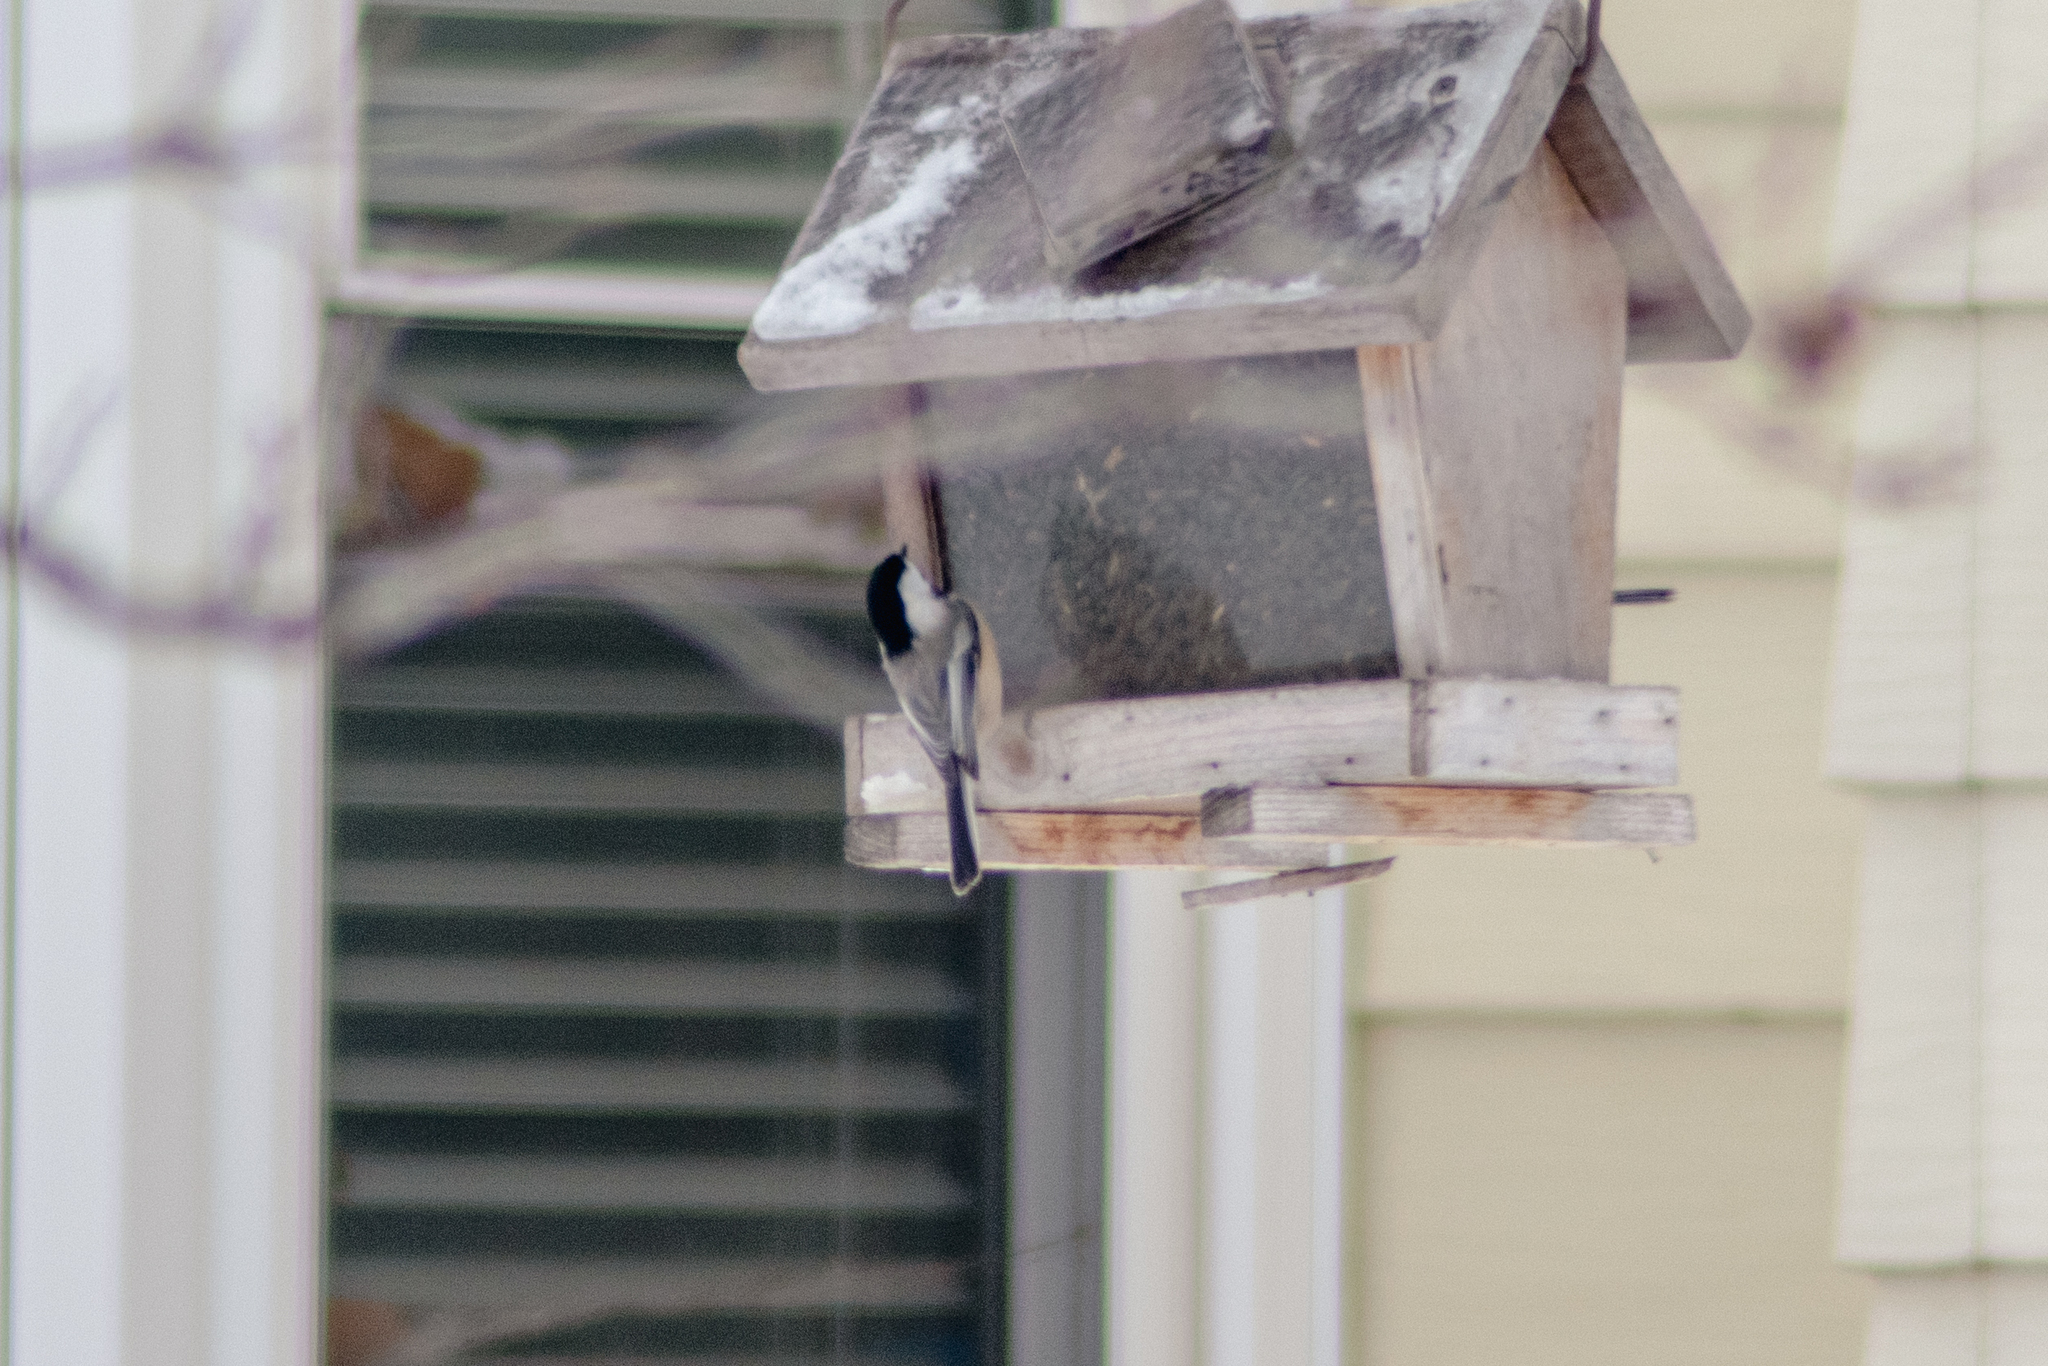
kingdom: Animalia
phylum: Chordata
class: Aves
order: Passeriformes
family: Paridae
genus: Poecile
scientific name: Poecile atricapillus
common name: Black-capped chickadee
